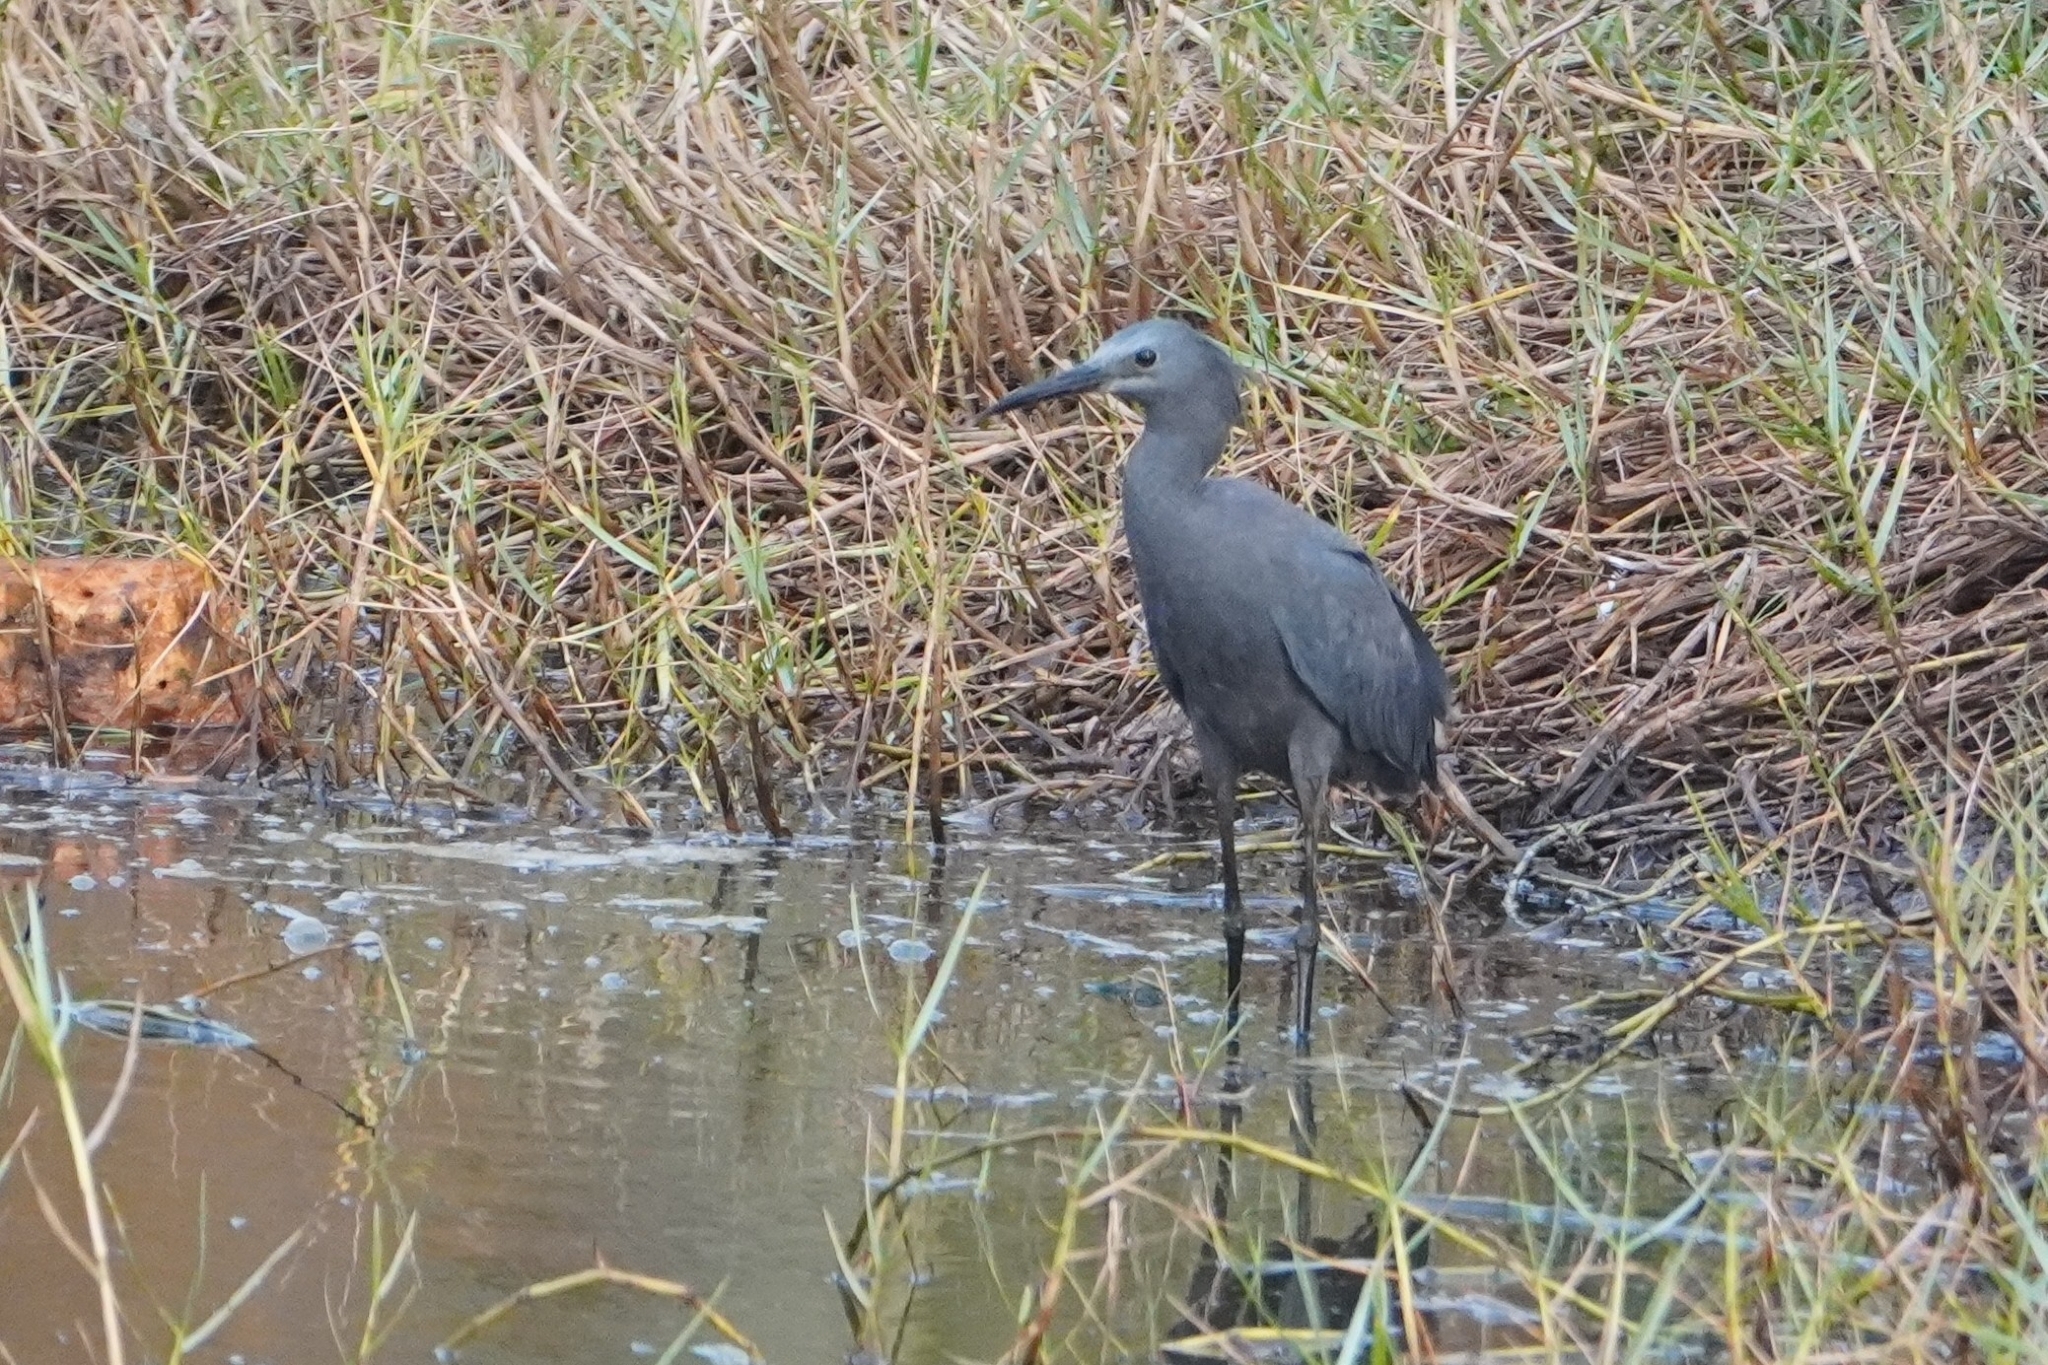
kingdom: Animalia
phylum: Chordata
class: Aves
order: Pelecaniformes
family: Ardeidae
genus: Egretta
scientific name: Egretta ardesiaca
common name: Black heron
